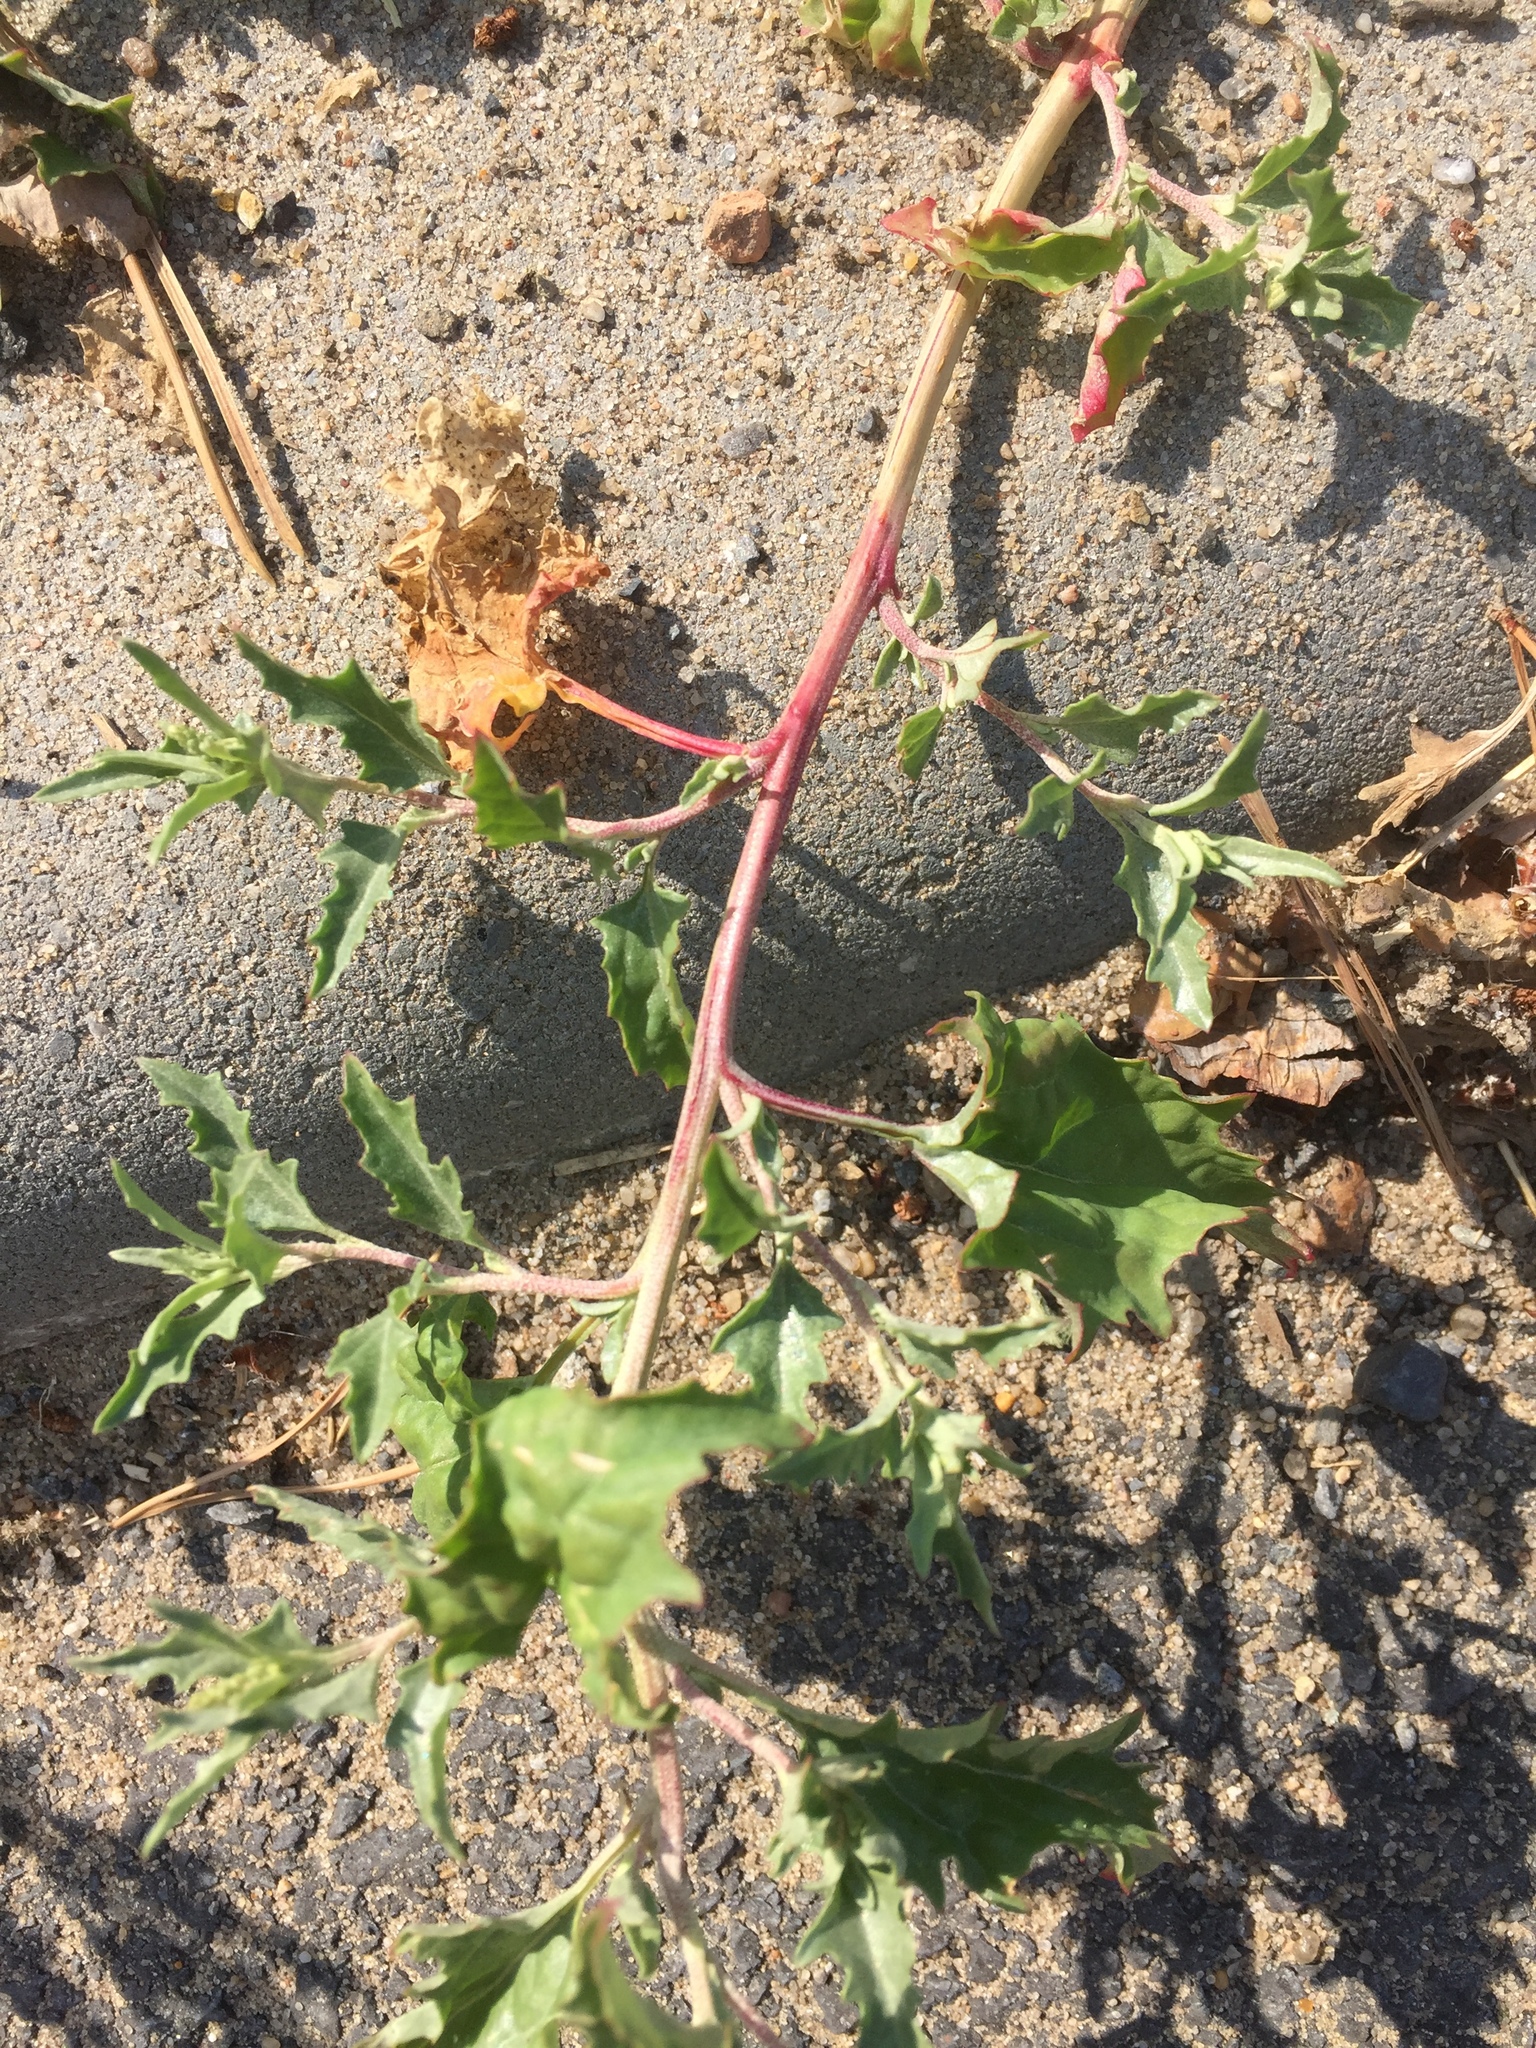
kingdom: Plantae
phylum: Tracheophyta
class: Magnoliopsida
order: Caryophyllales
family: Amaranthaceae
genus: Atriplex
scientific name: Atriplex tatarica
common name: Tatarian orache
